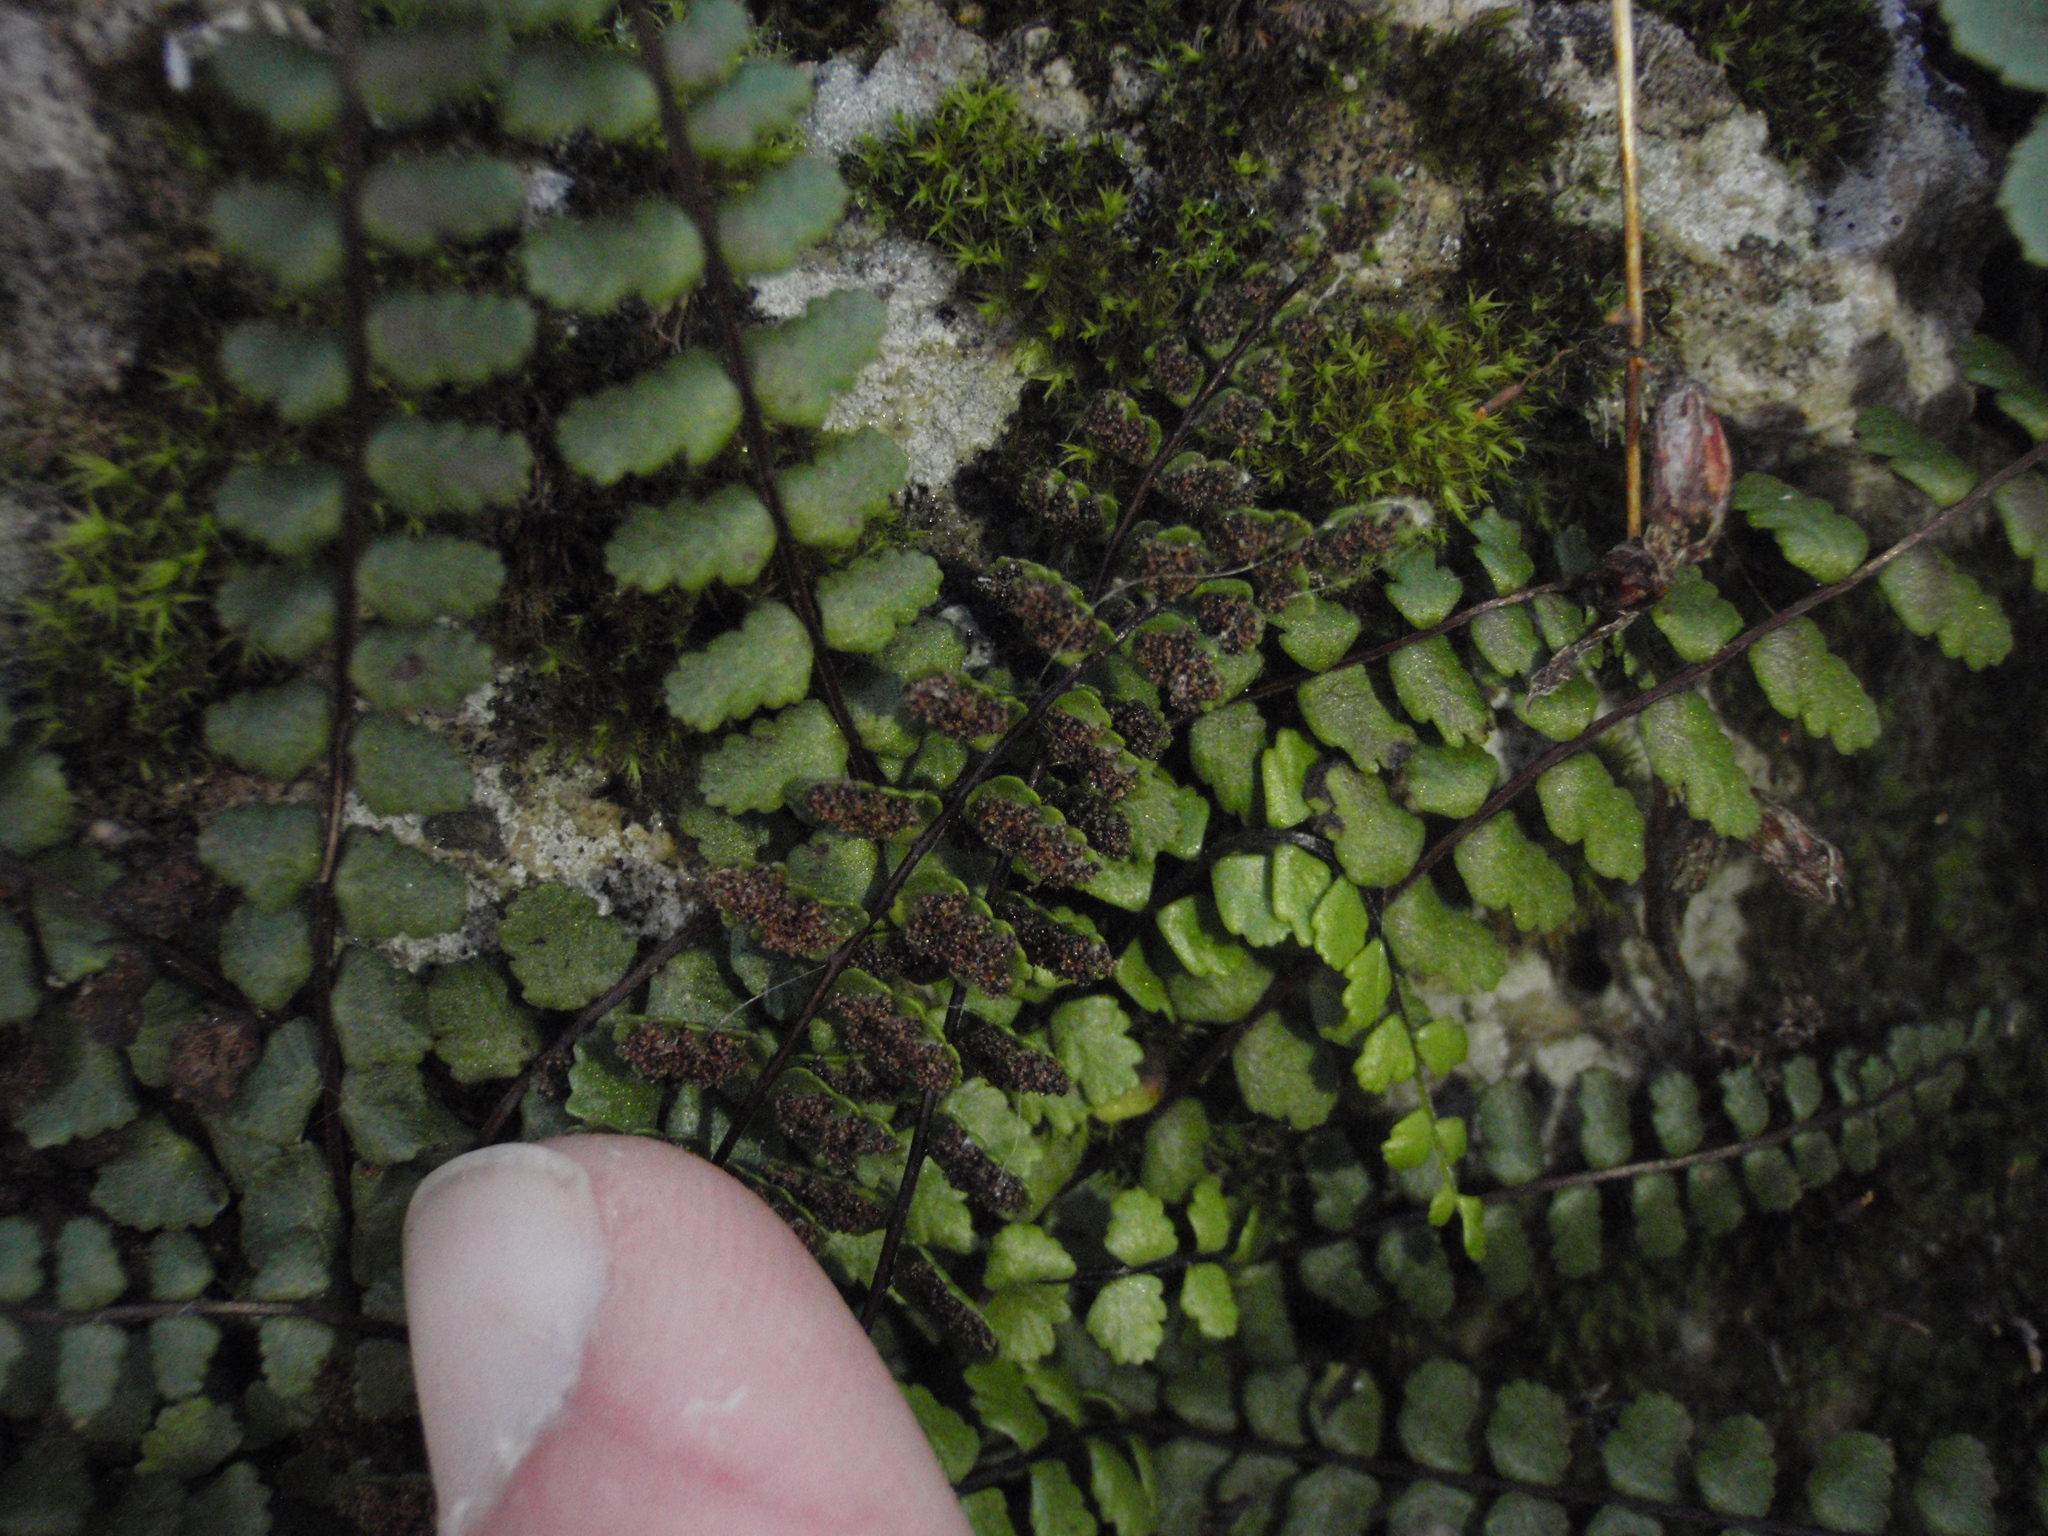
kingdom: Plantae
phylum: Tracheophyta
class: Polypodiopsida
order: Polypodiales
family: Aspleniaceae
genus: Asplenium
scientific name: Asplenium trichomanes
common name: Maidenhair spleenwort
